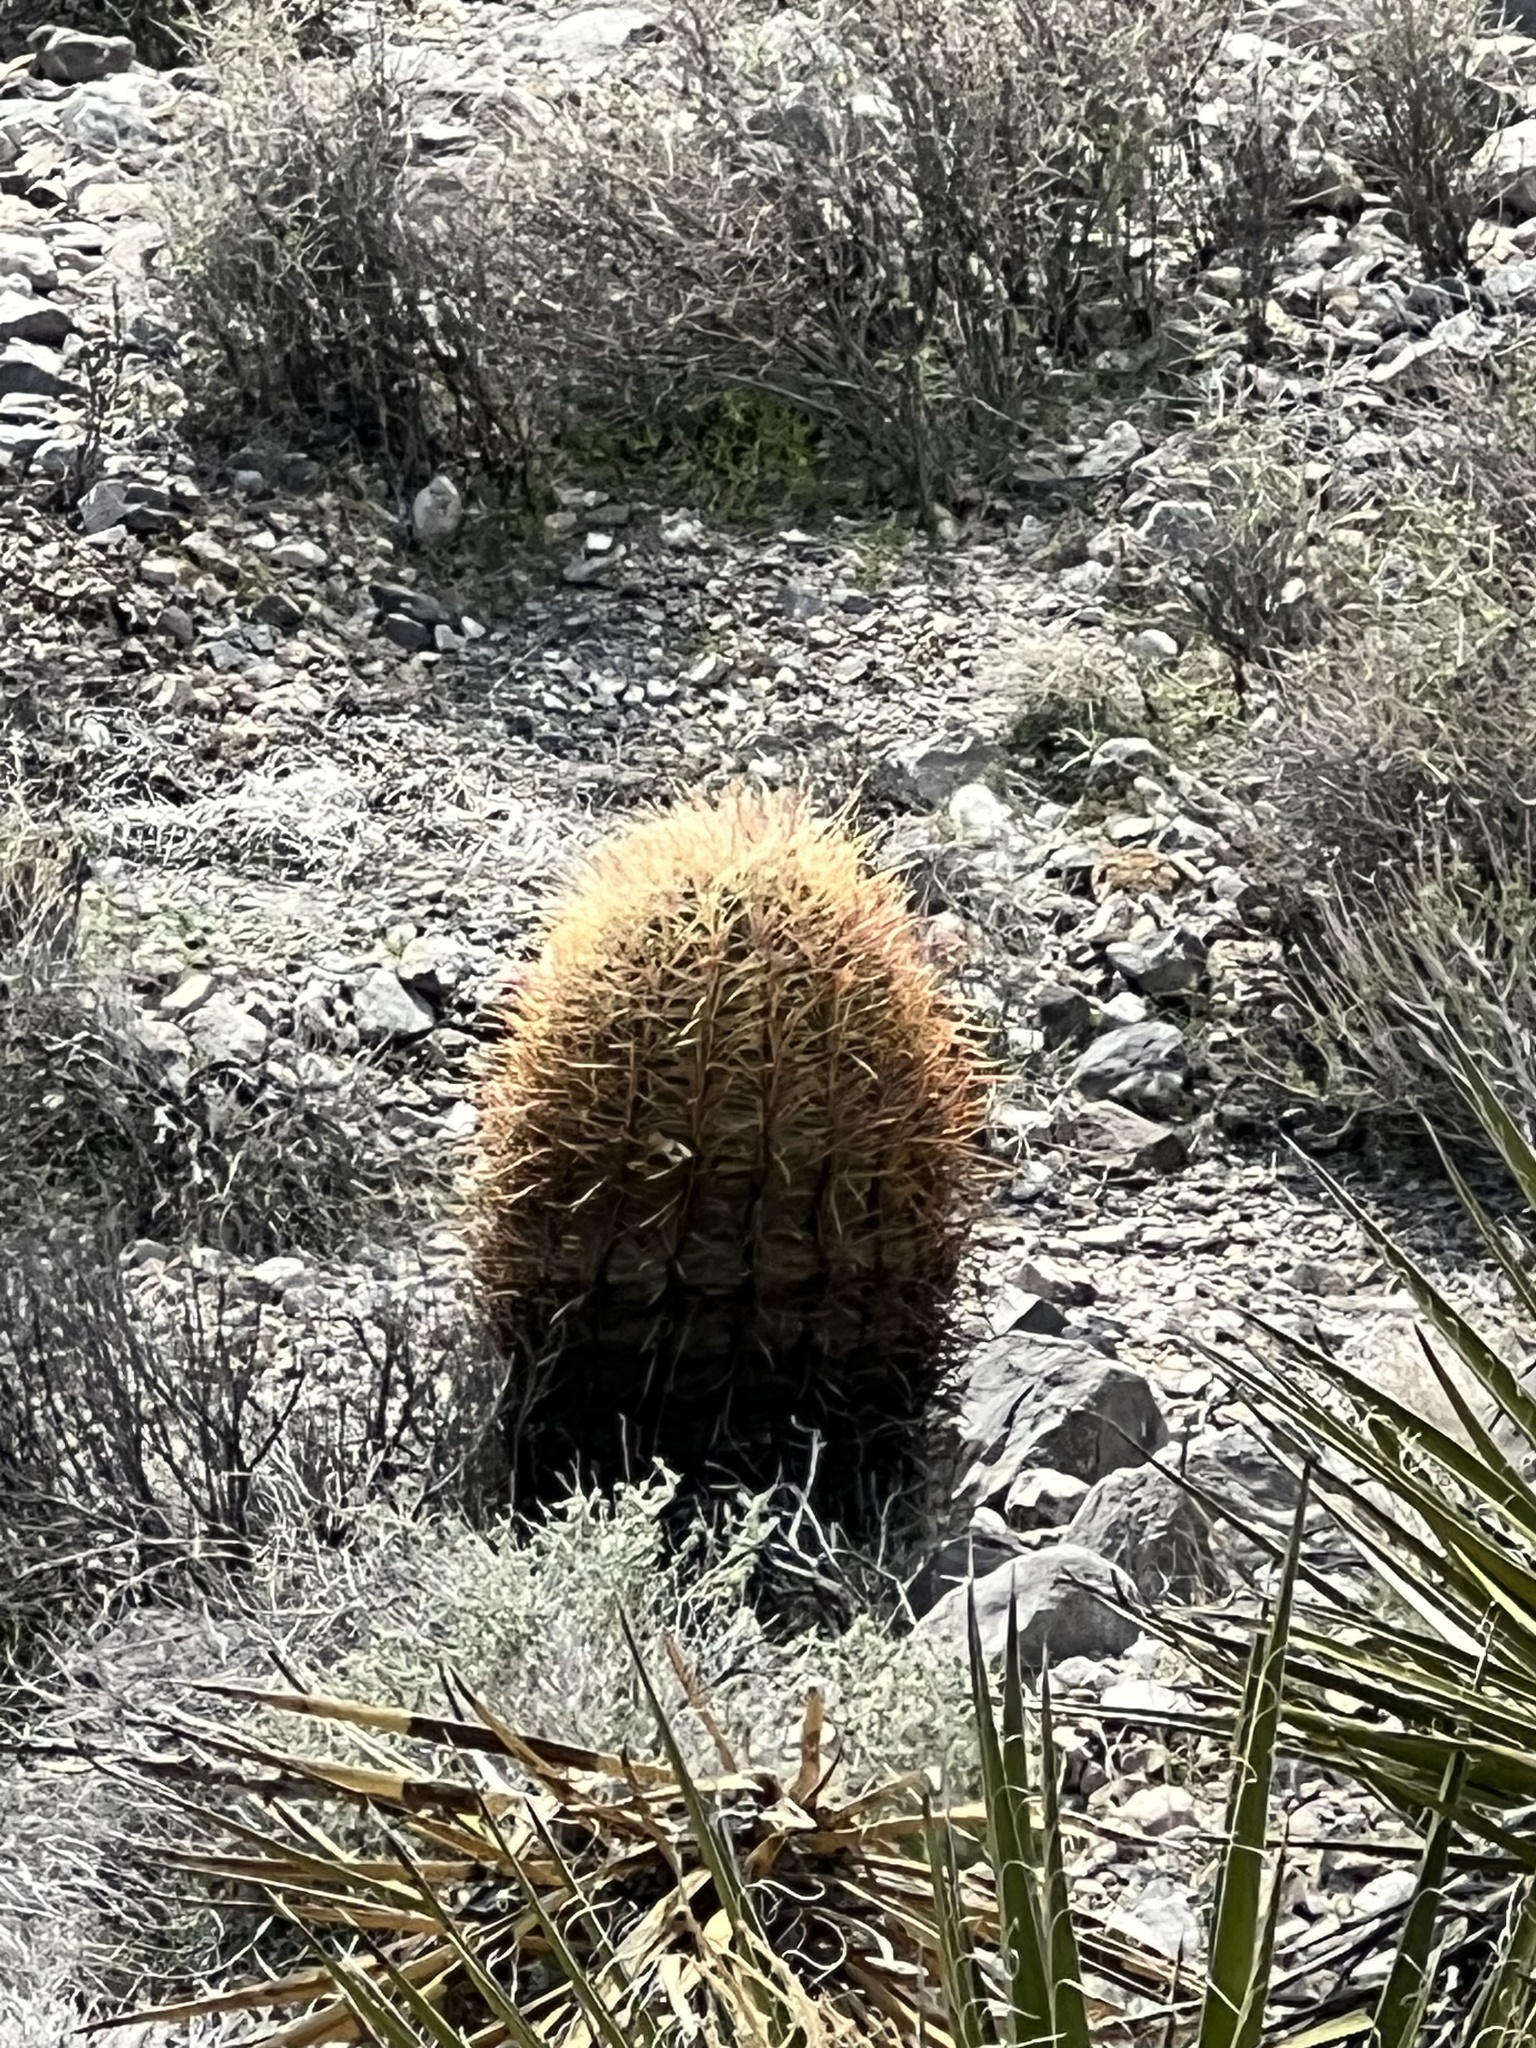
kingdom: Plantae
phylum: Tracheophyta
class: Magnoliopsida
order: Caryophyllales
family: Cactaceae
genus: Ferocactus
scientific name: Ferocactus cylindraceus
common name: California barrel cactus
